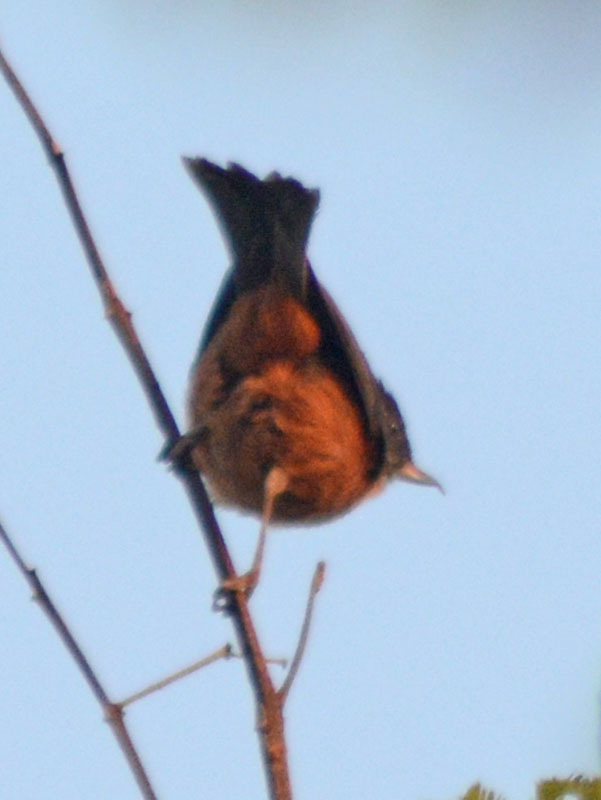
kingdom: Animalia
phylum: Chordata
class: Aves
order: Passeriformes
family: Thraupidae
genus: Diglossa
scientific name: Diglossa baritula
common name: Cinnamon-bellied flowerpiercer
